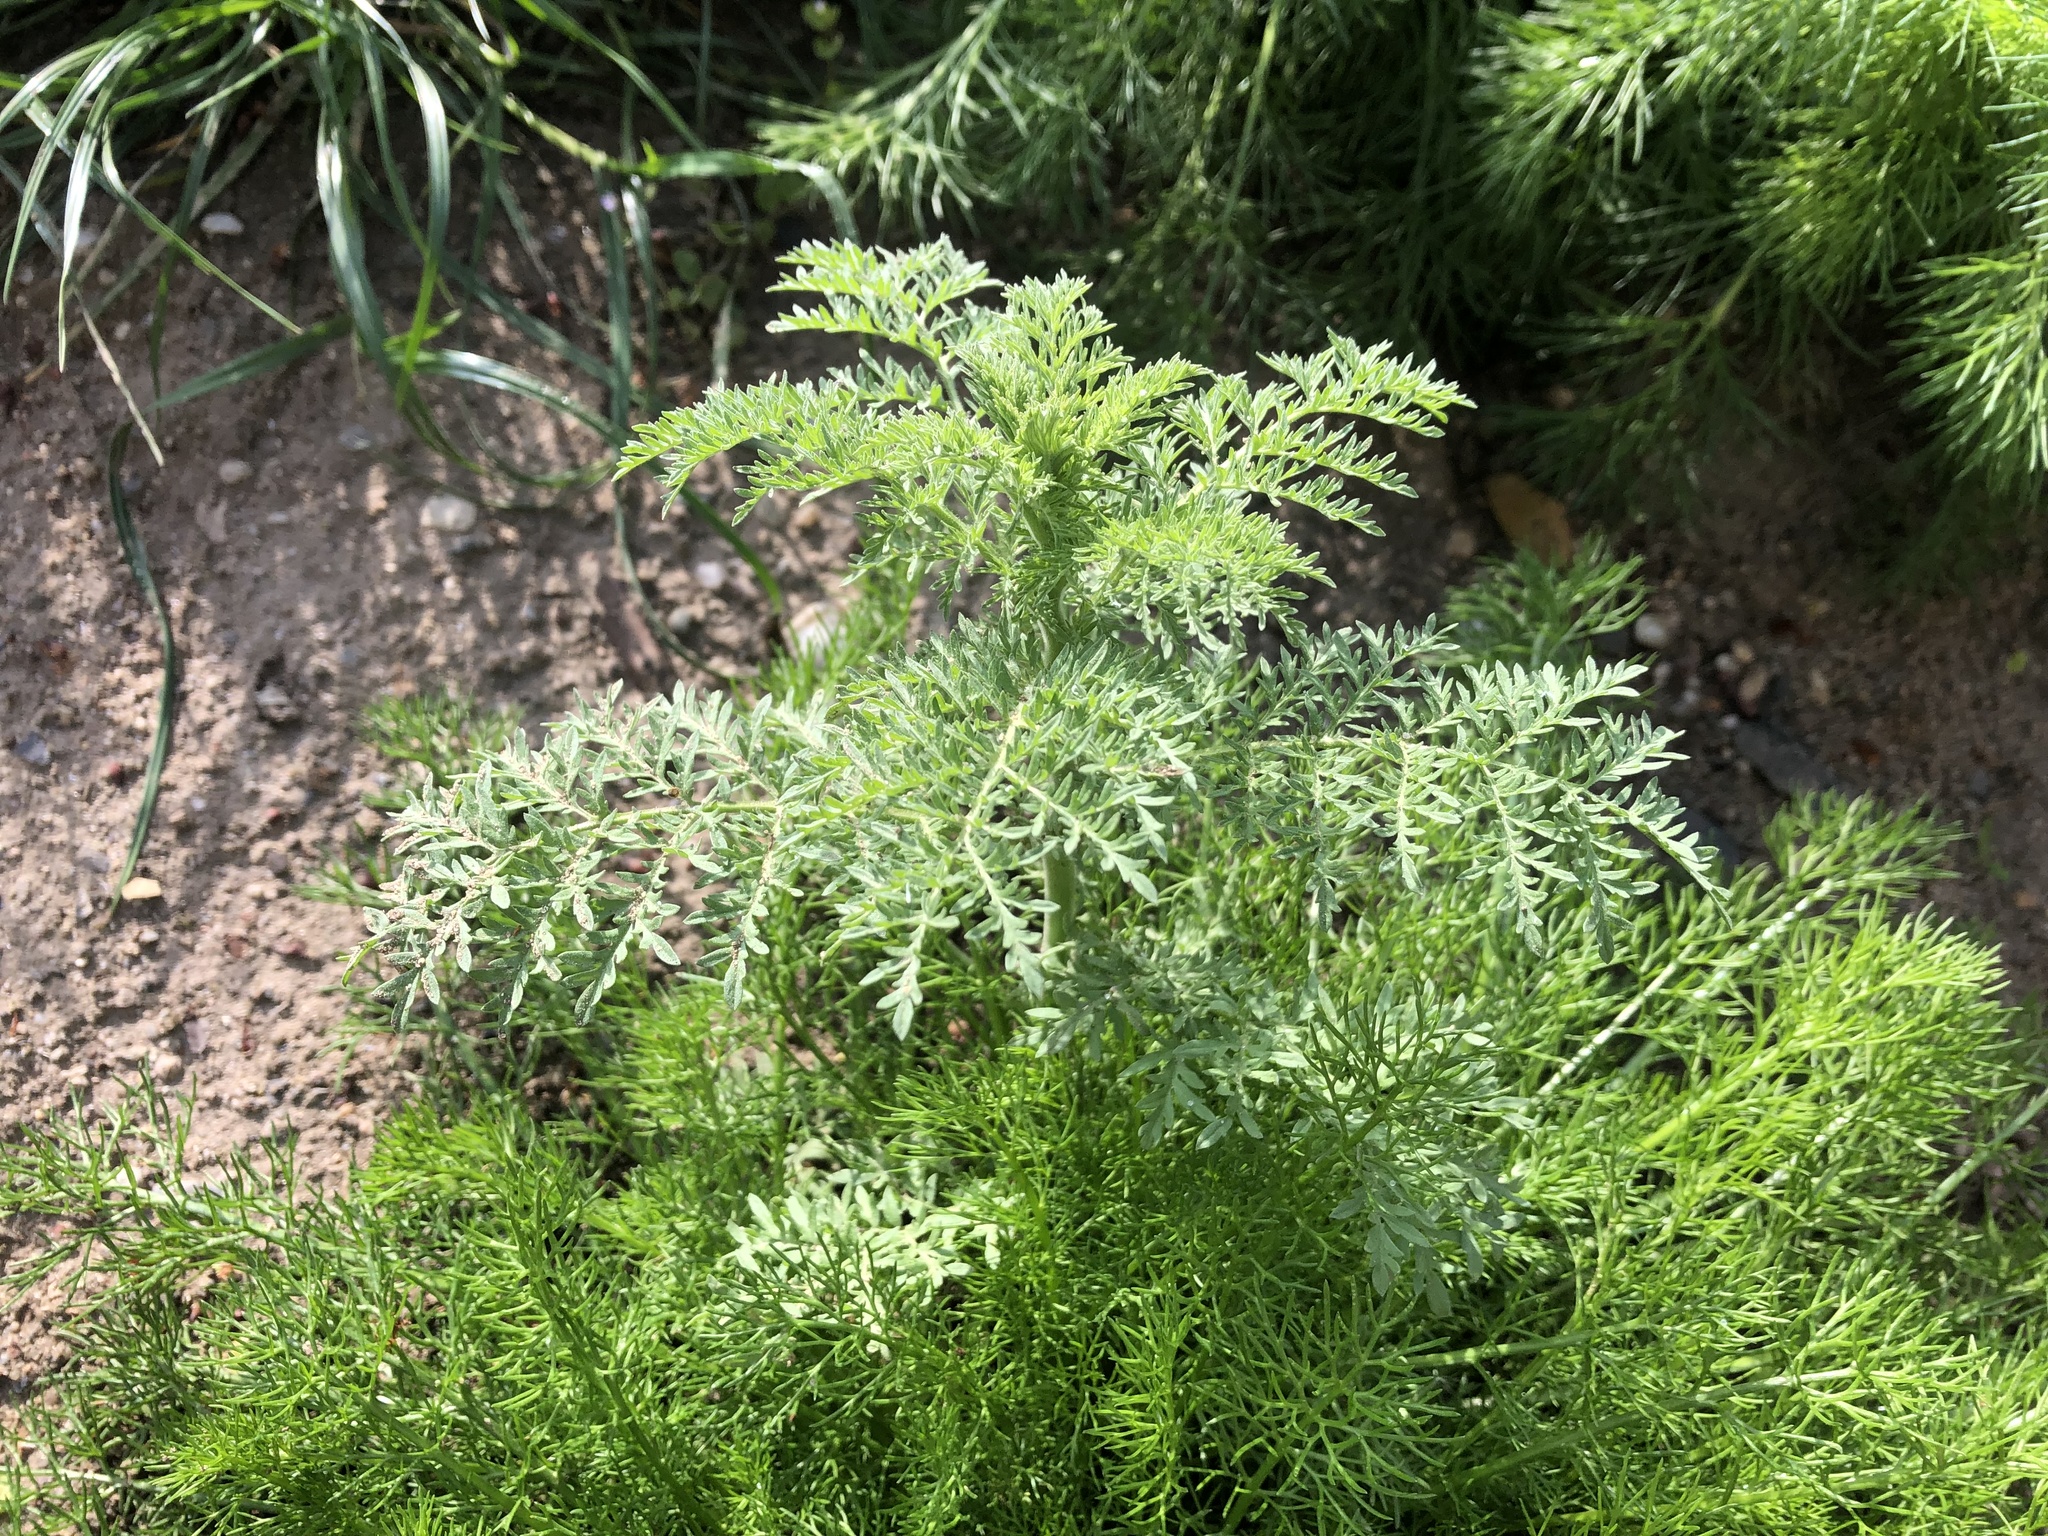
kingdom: Plantae
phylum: Tracheophyta
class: Magnoliopsida
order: Brassicales
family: Brassicaceae
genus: Descurainia
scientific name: Descurainia sophia
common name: Flixweed
